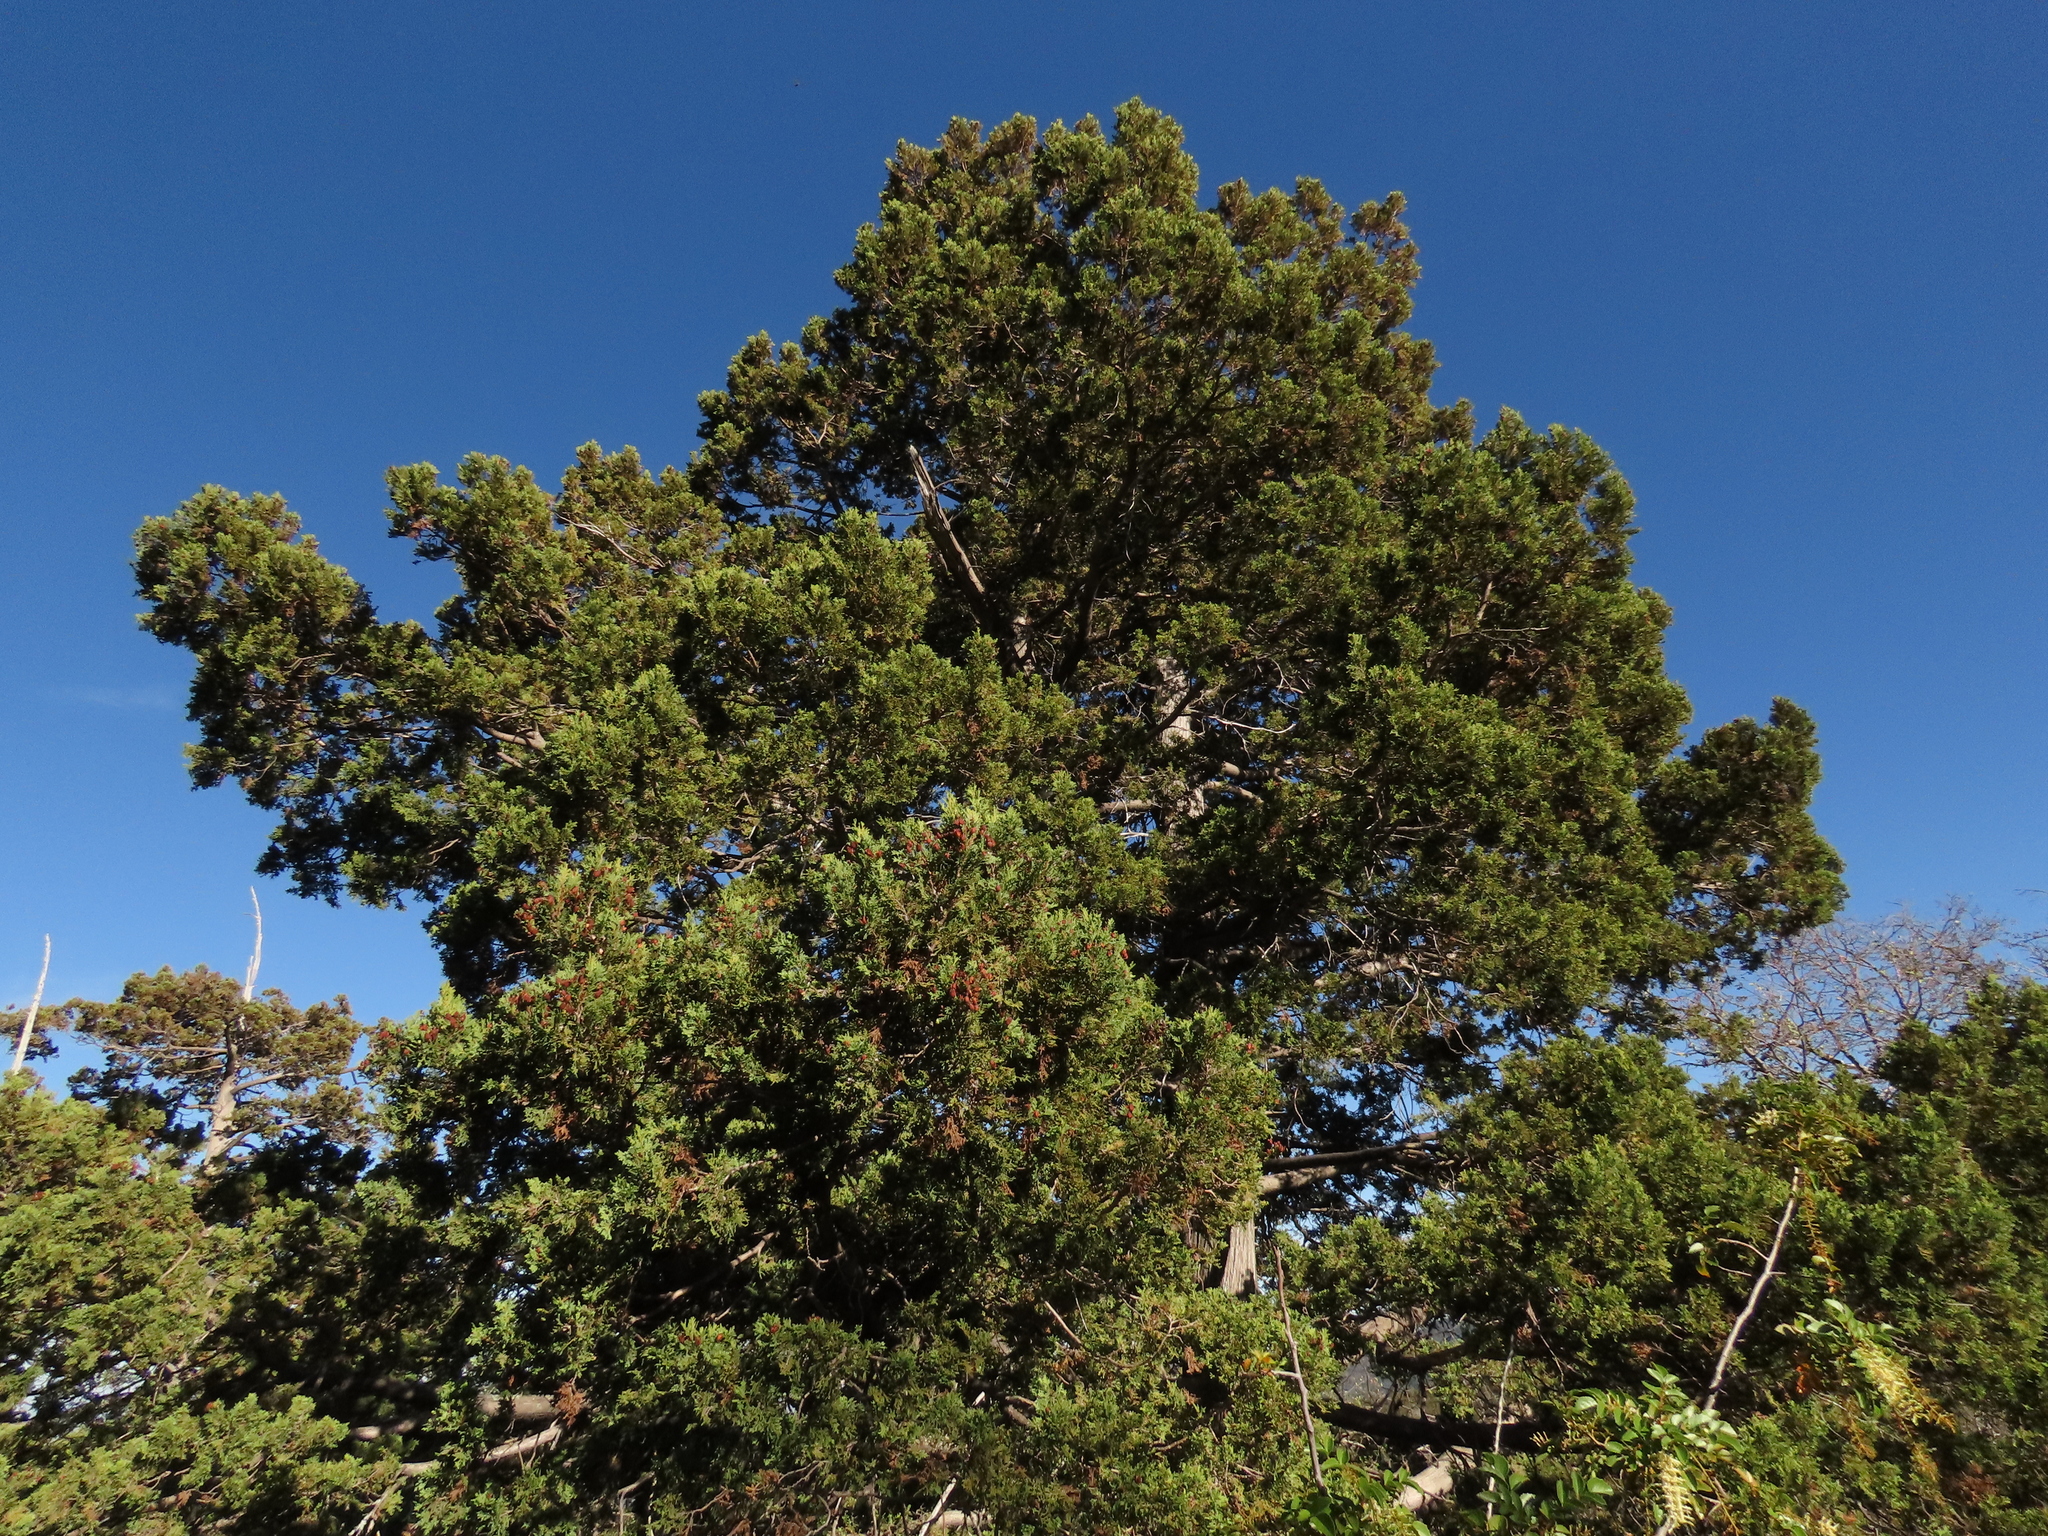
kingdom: Plantae
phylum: Tracheophyta
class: Pinopsida
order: Pinales
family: Cupressaceae
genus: Austrocedrus
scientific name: Austrocedrus chilensis
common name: Chilean incense-cedar
